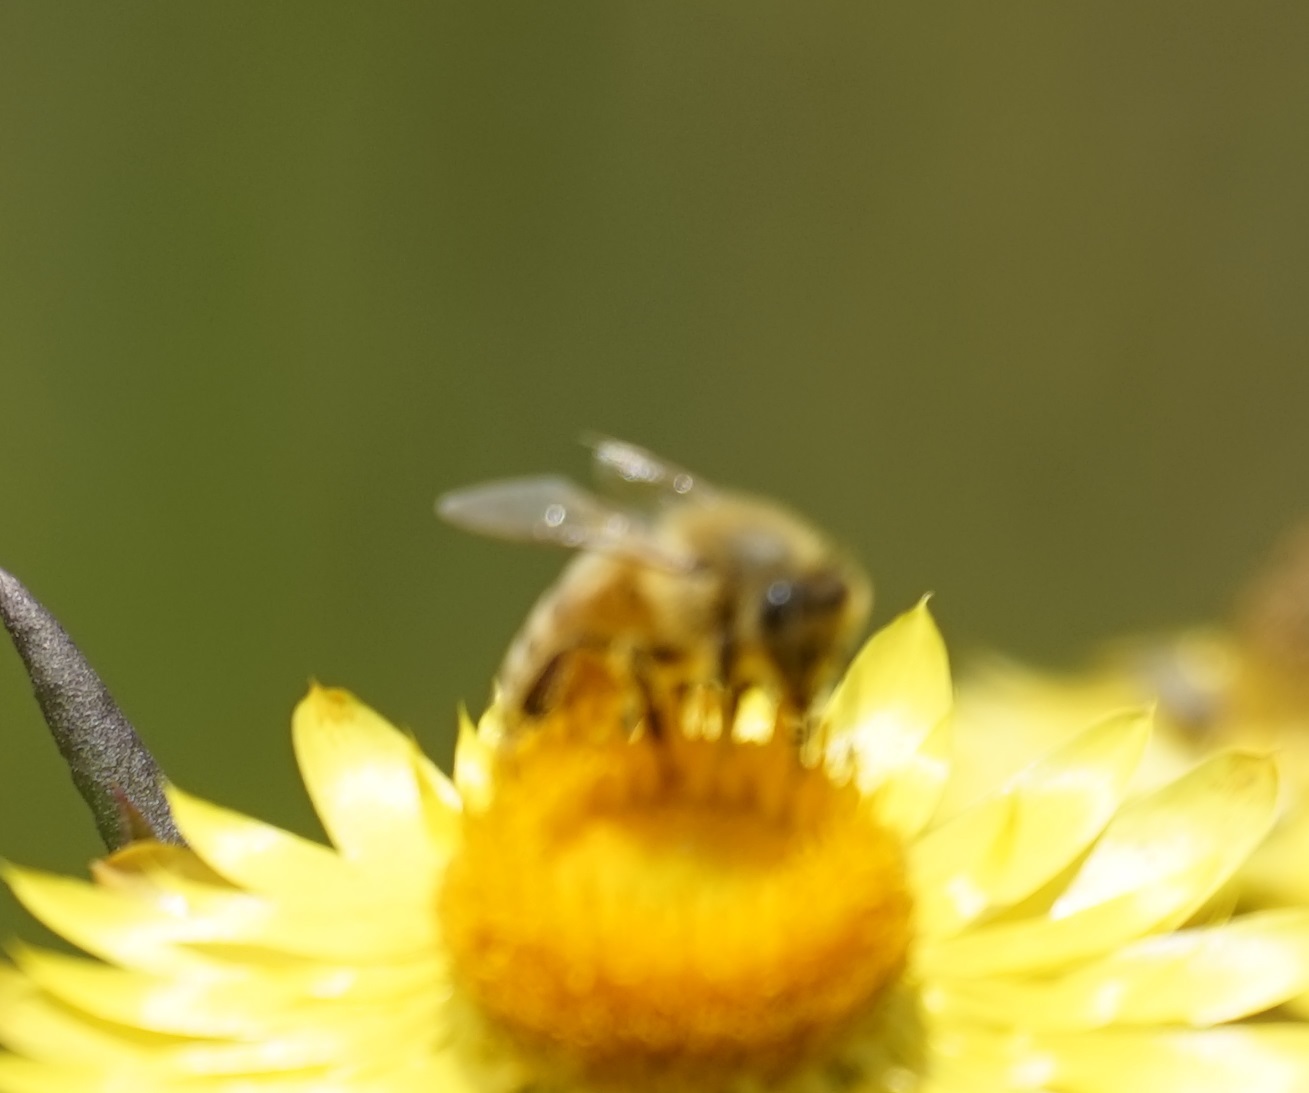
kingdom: Animalia
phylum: Arthropoda
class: Insecta
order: Hymenoptera
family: Apidae
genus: Apis
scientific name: Apis mellifera
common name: Honey bee
